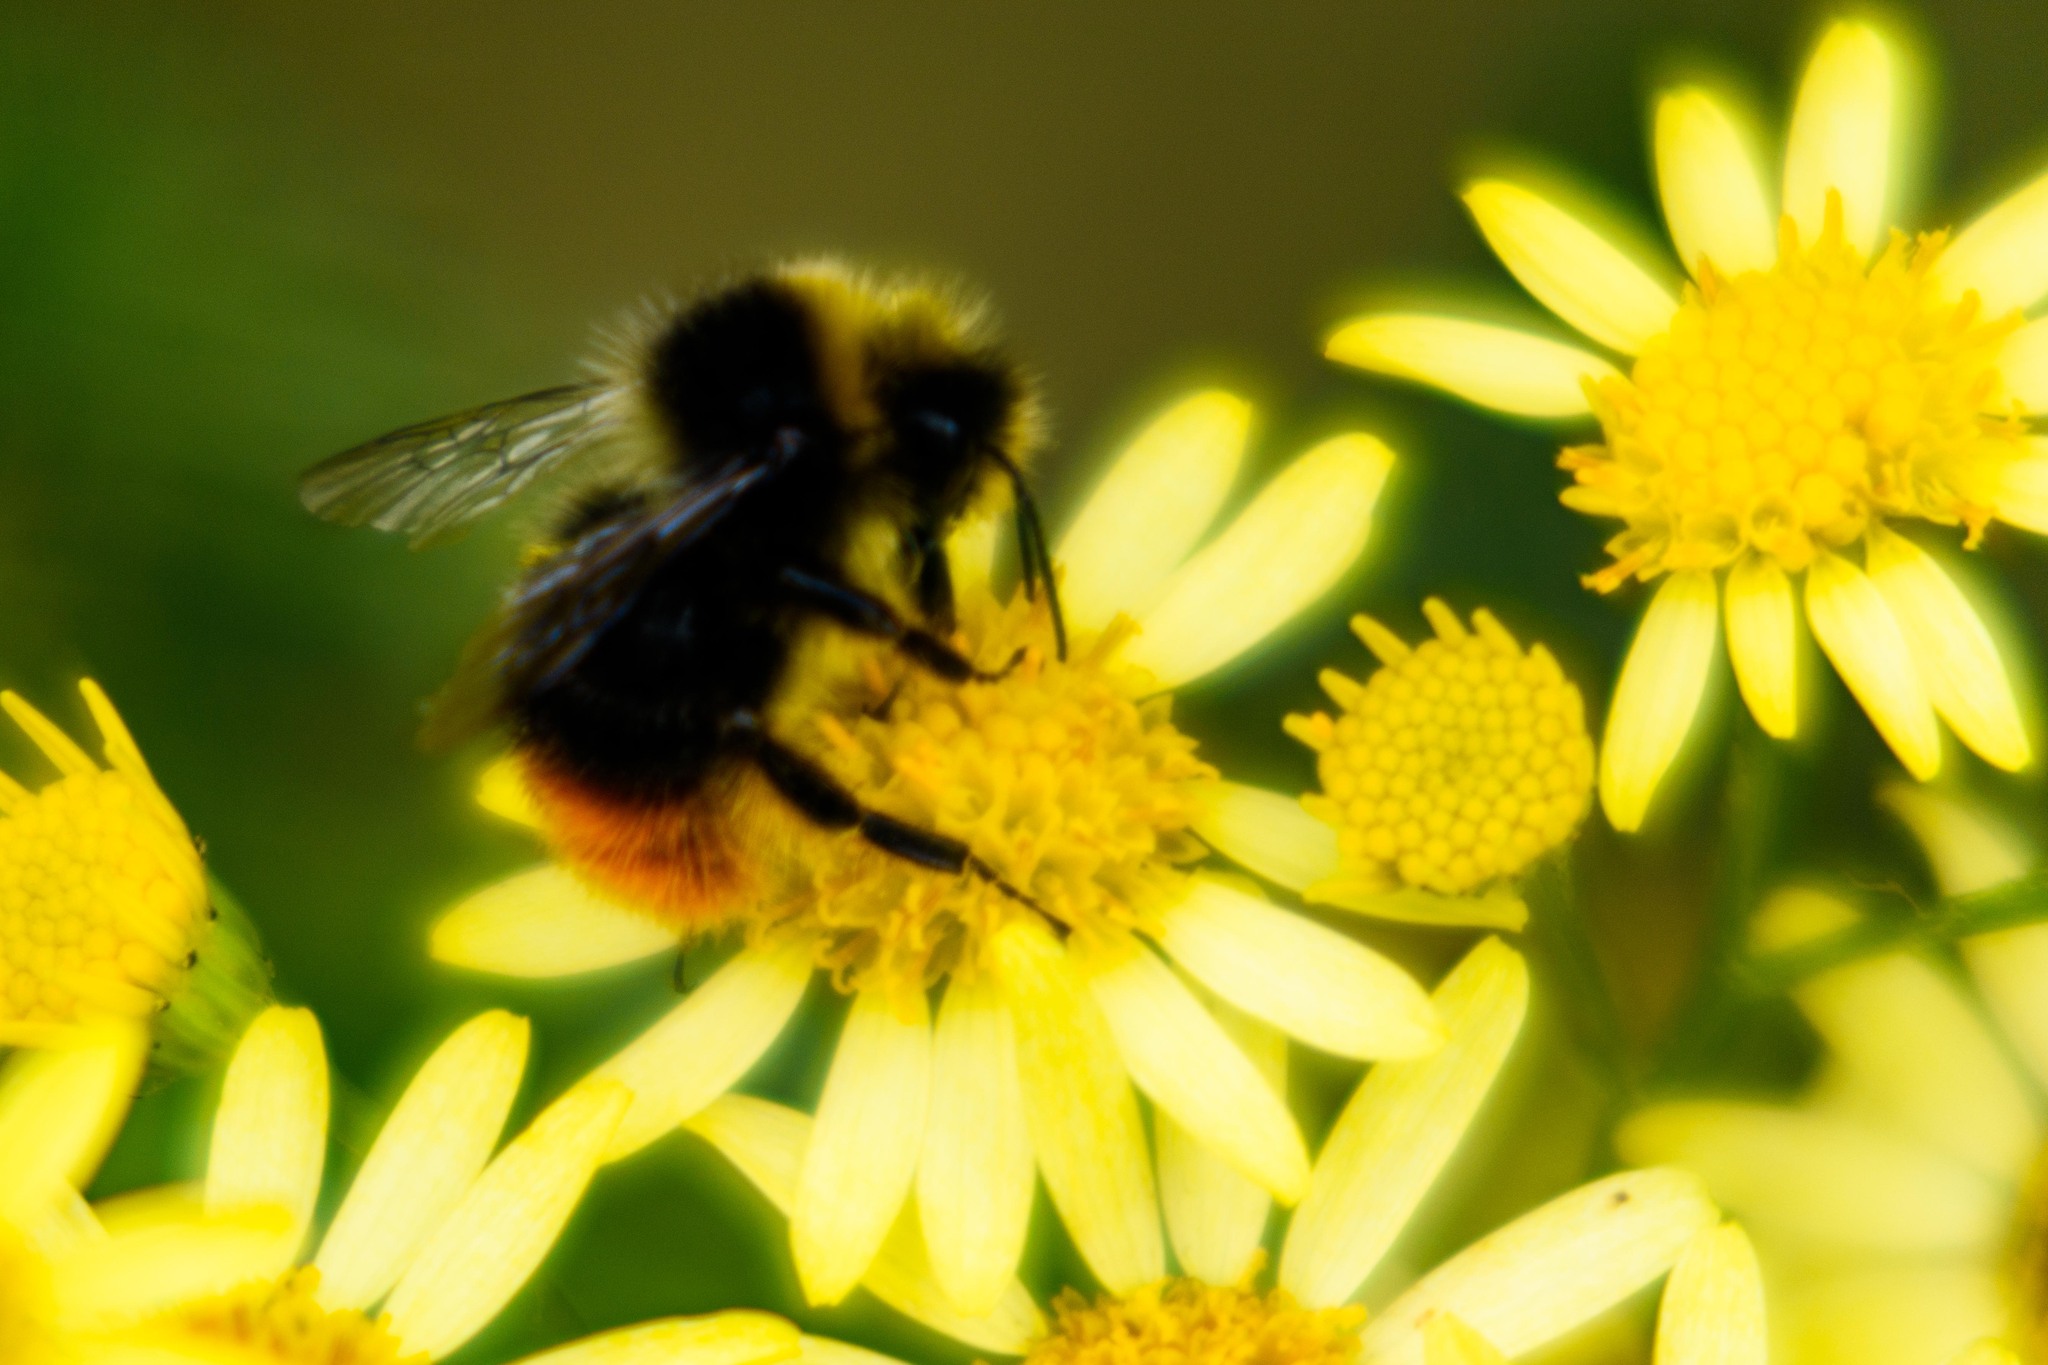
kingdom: Animalia
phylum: Arthropoda
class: Insecta
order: Hymenoptera
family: Apidae
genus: Bombus
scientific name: Bombus lapidarius
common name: Large red-tailed humble-bee
